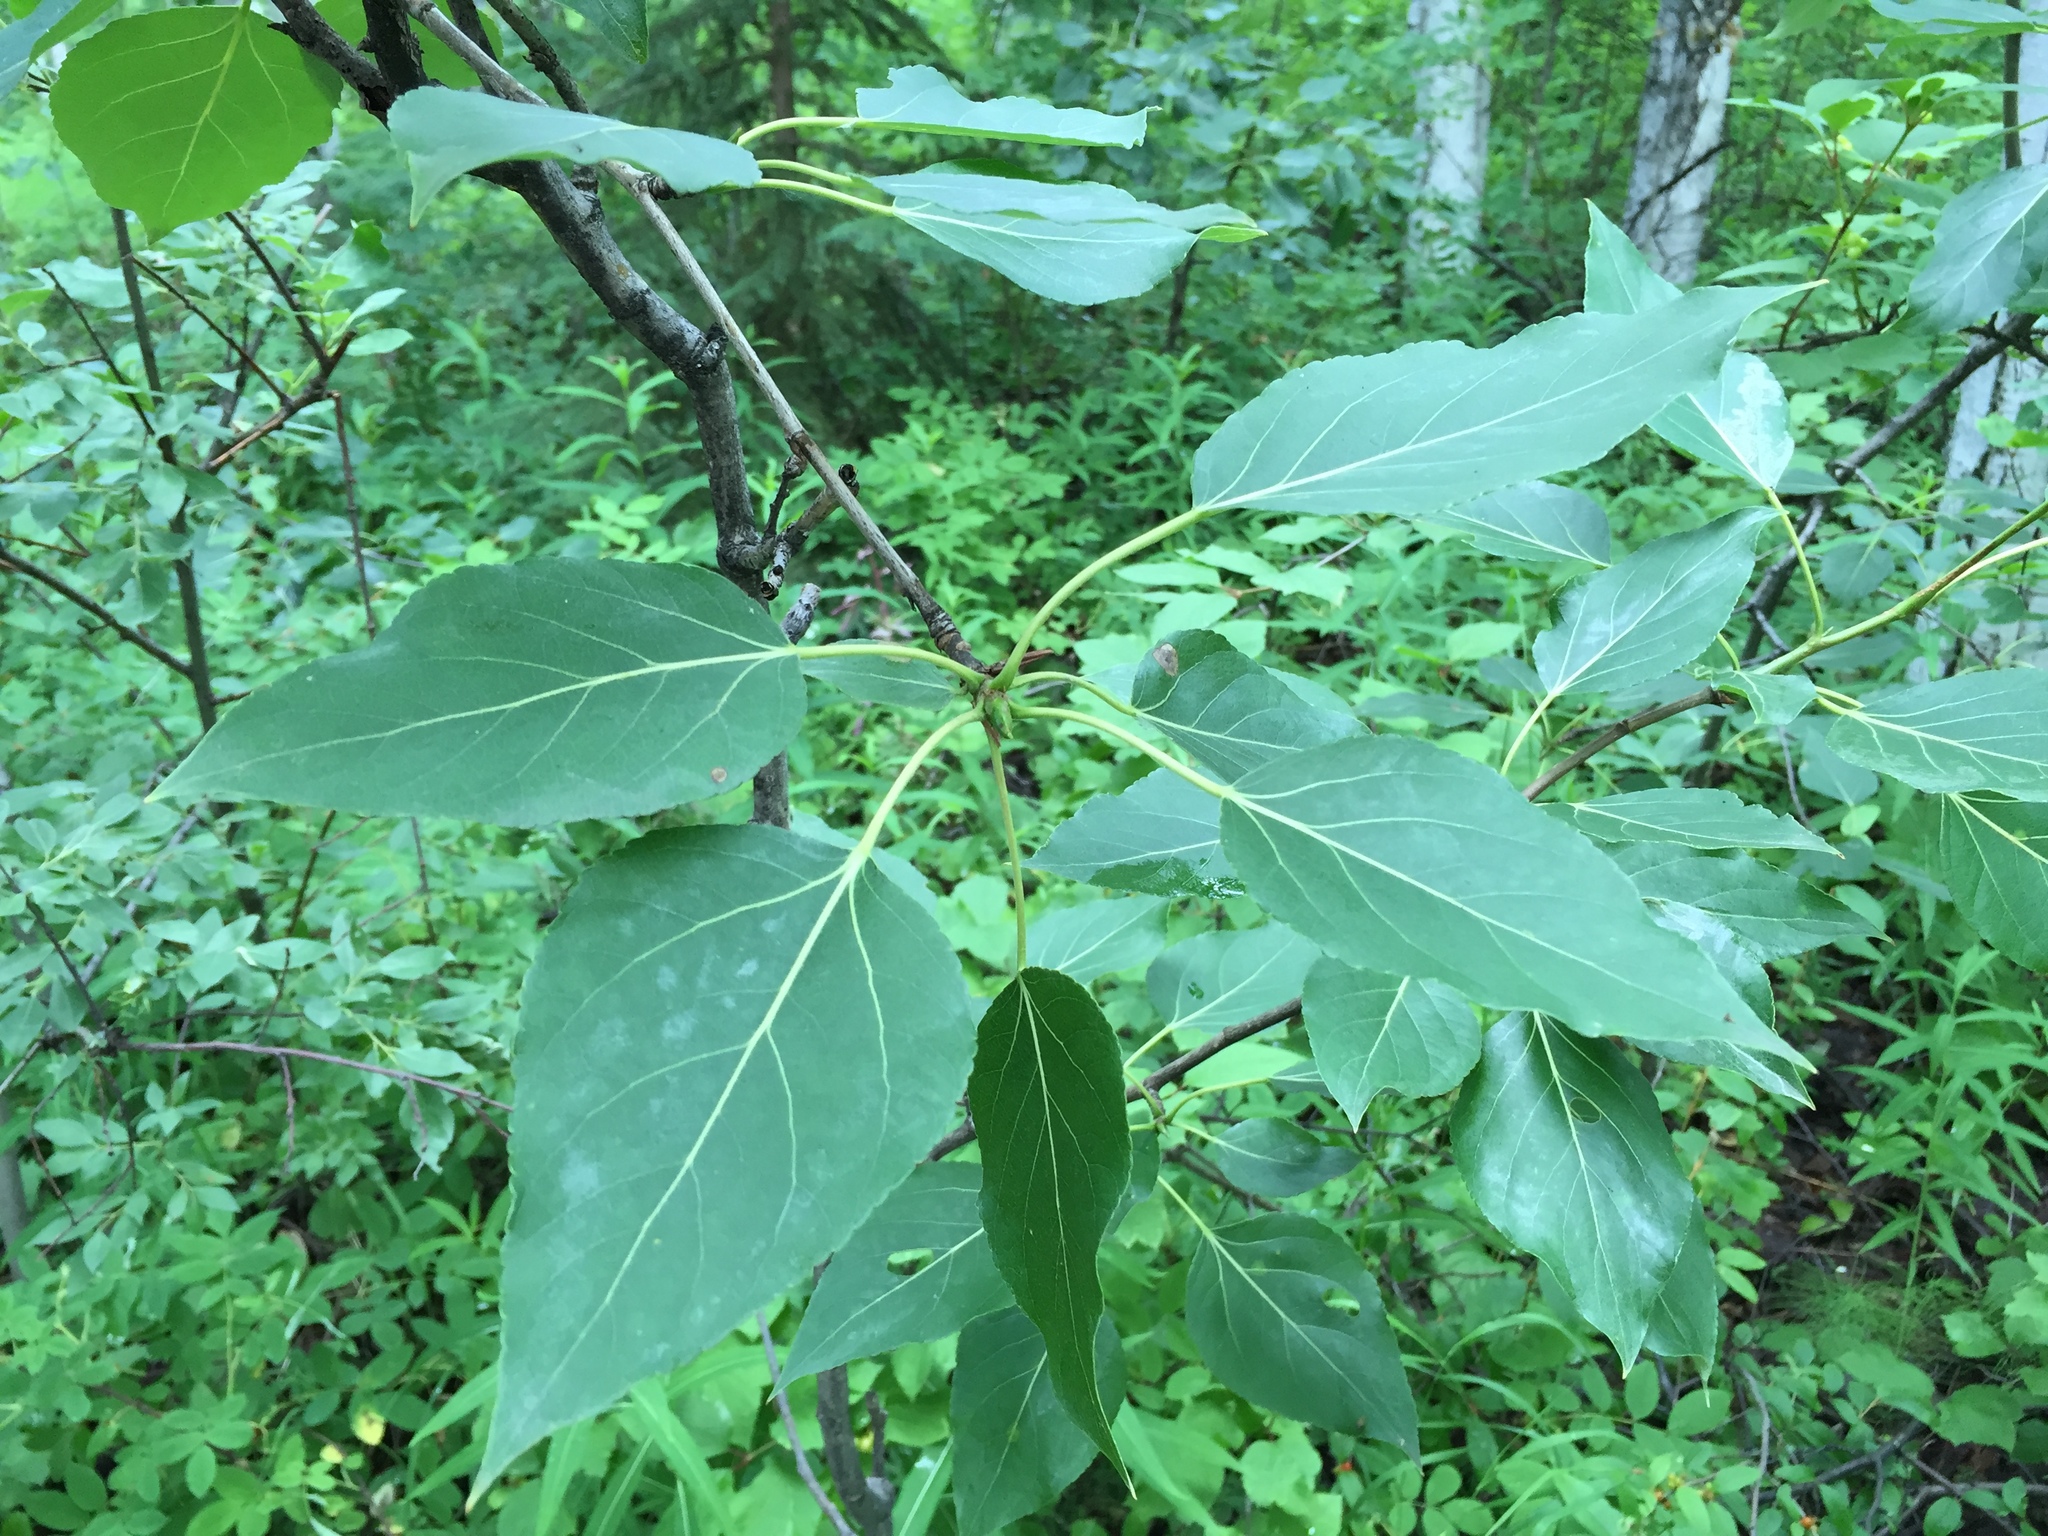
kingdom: Plantae
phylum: Tracheophyta
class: Magnoliopsida
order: Malpighiales
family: Salicaceae
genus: Populus
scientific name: Populus balsamifera
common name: Balsam poplar
